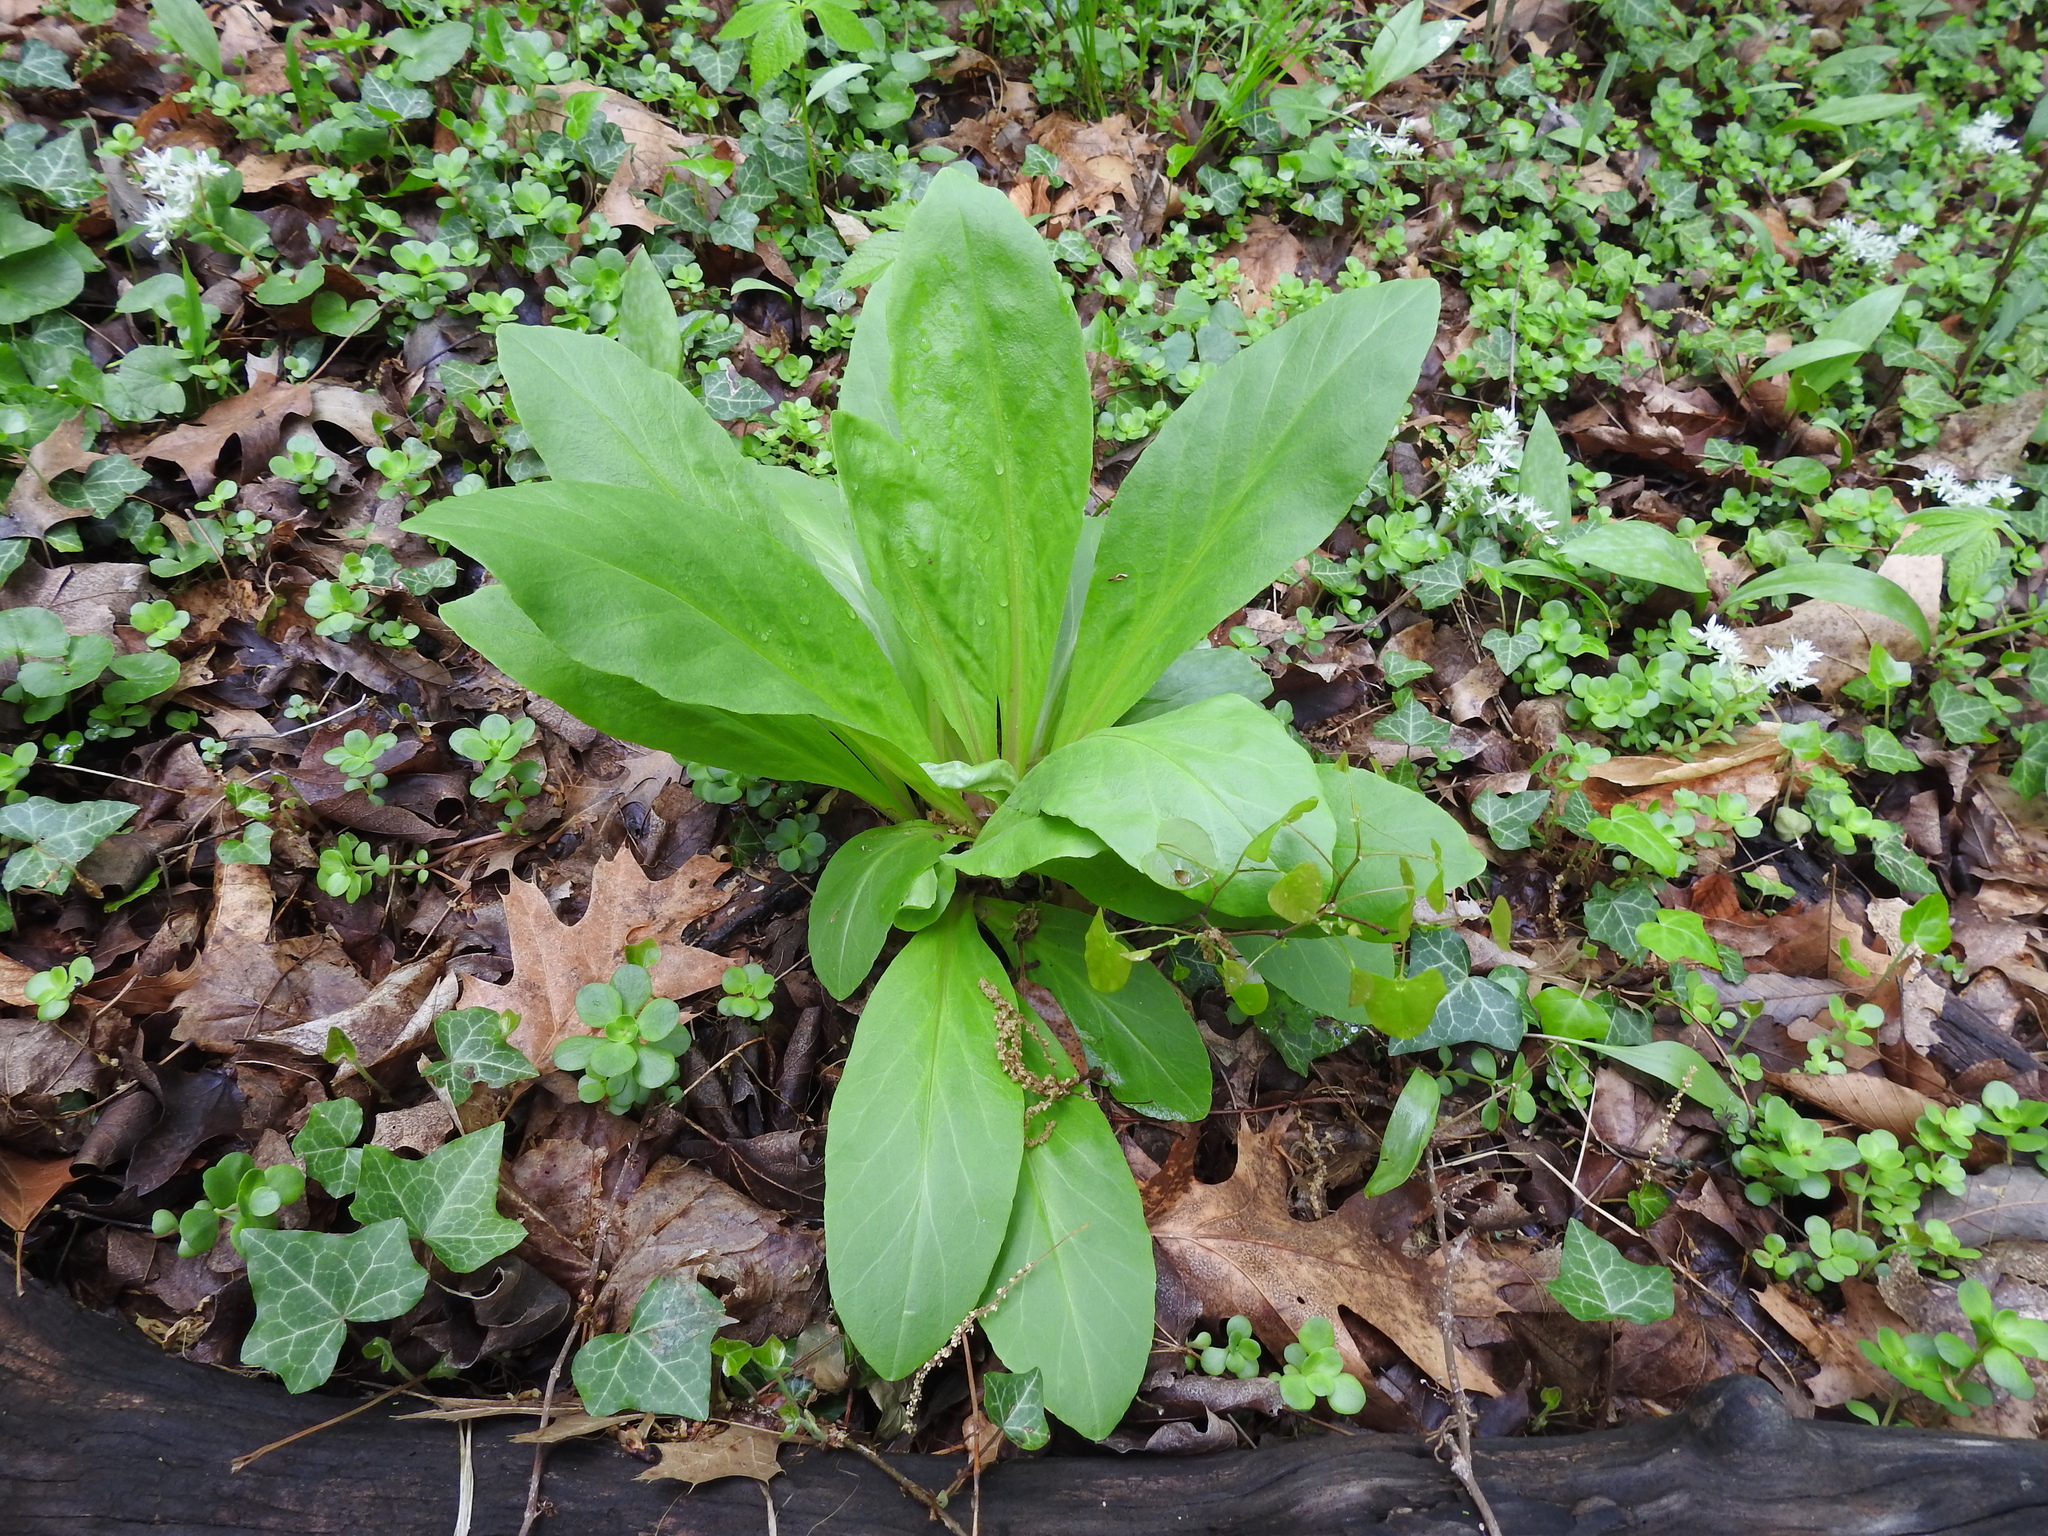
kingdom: Plantae
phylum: Tracheophyta
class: Magnoliopsida
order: Ericales
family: Primulaceae
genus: Dodecatheon
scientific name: Dodecatheon meadia
